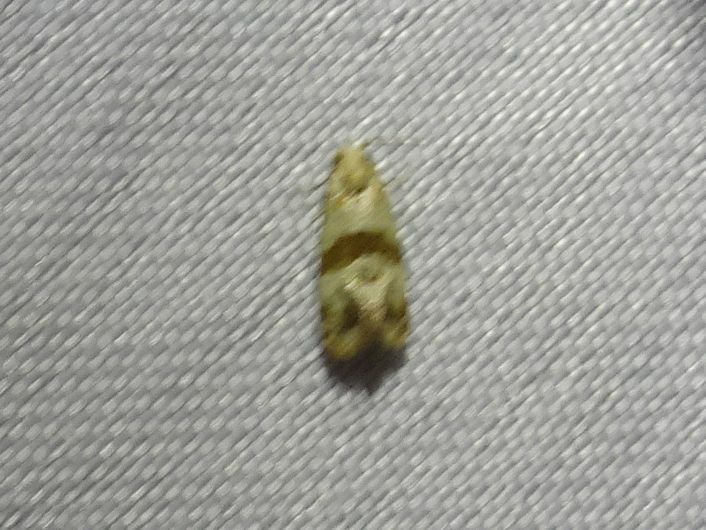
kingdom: Animalia
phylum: Arthropoda
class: Insecta
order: Lepidoptera
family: Tortricidae
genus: Phalonidia
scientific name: Phalonidia contractana
